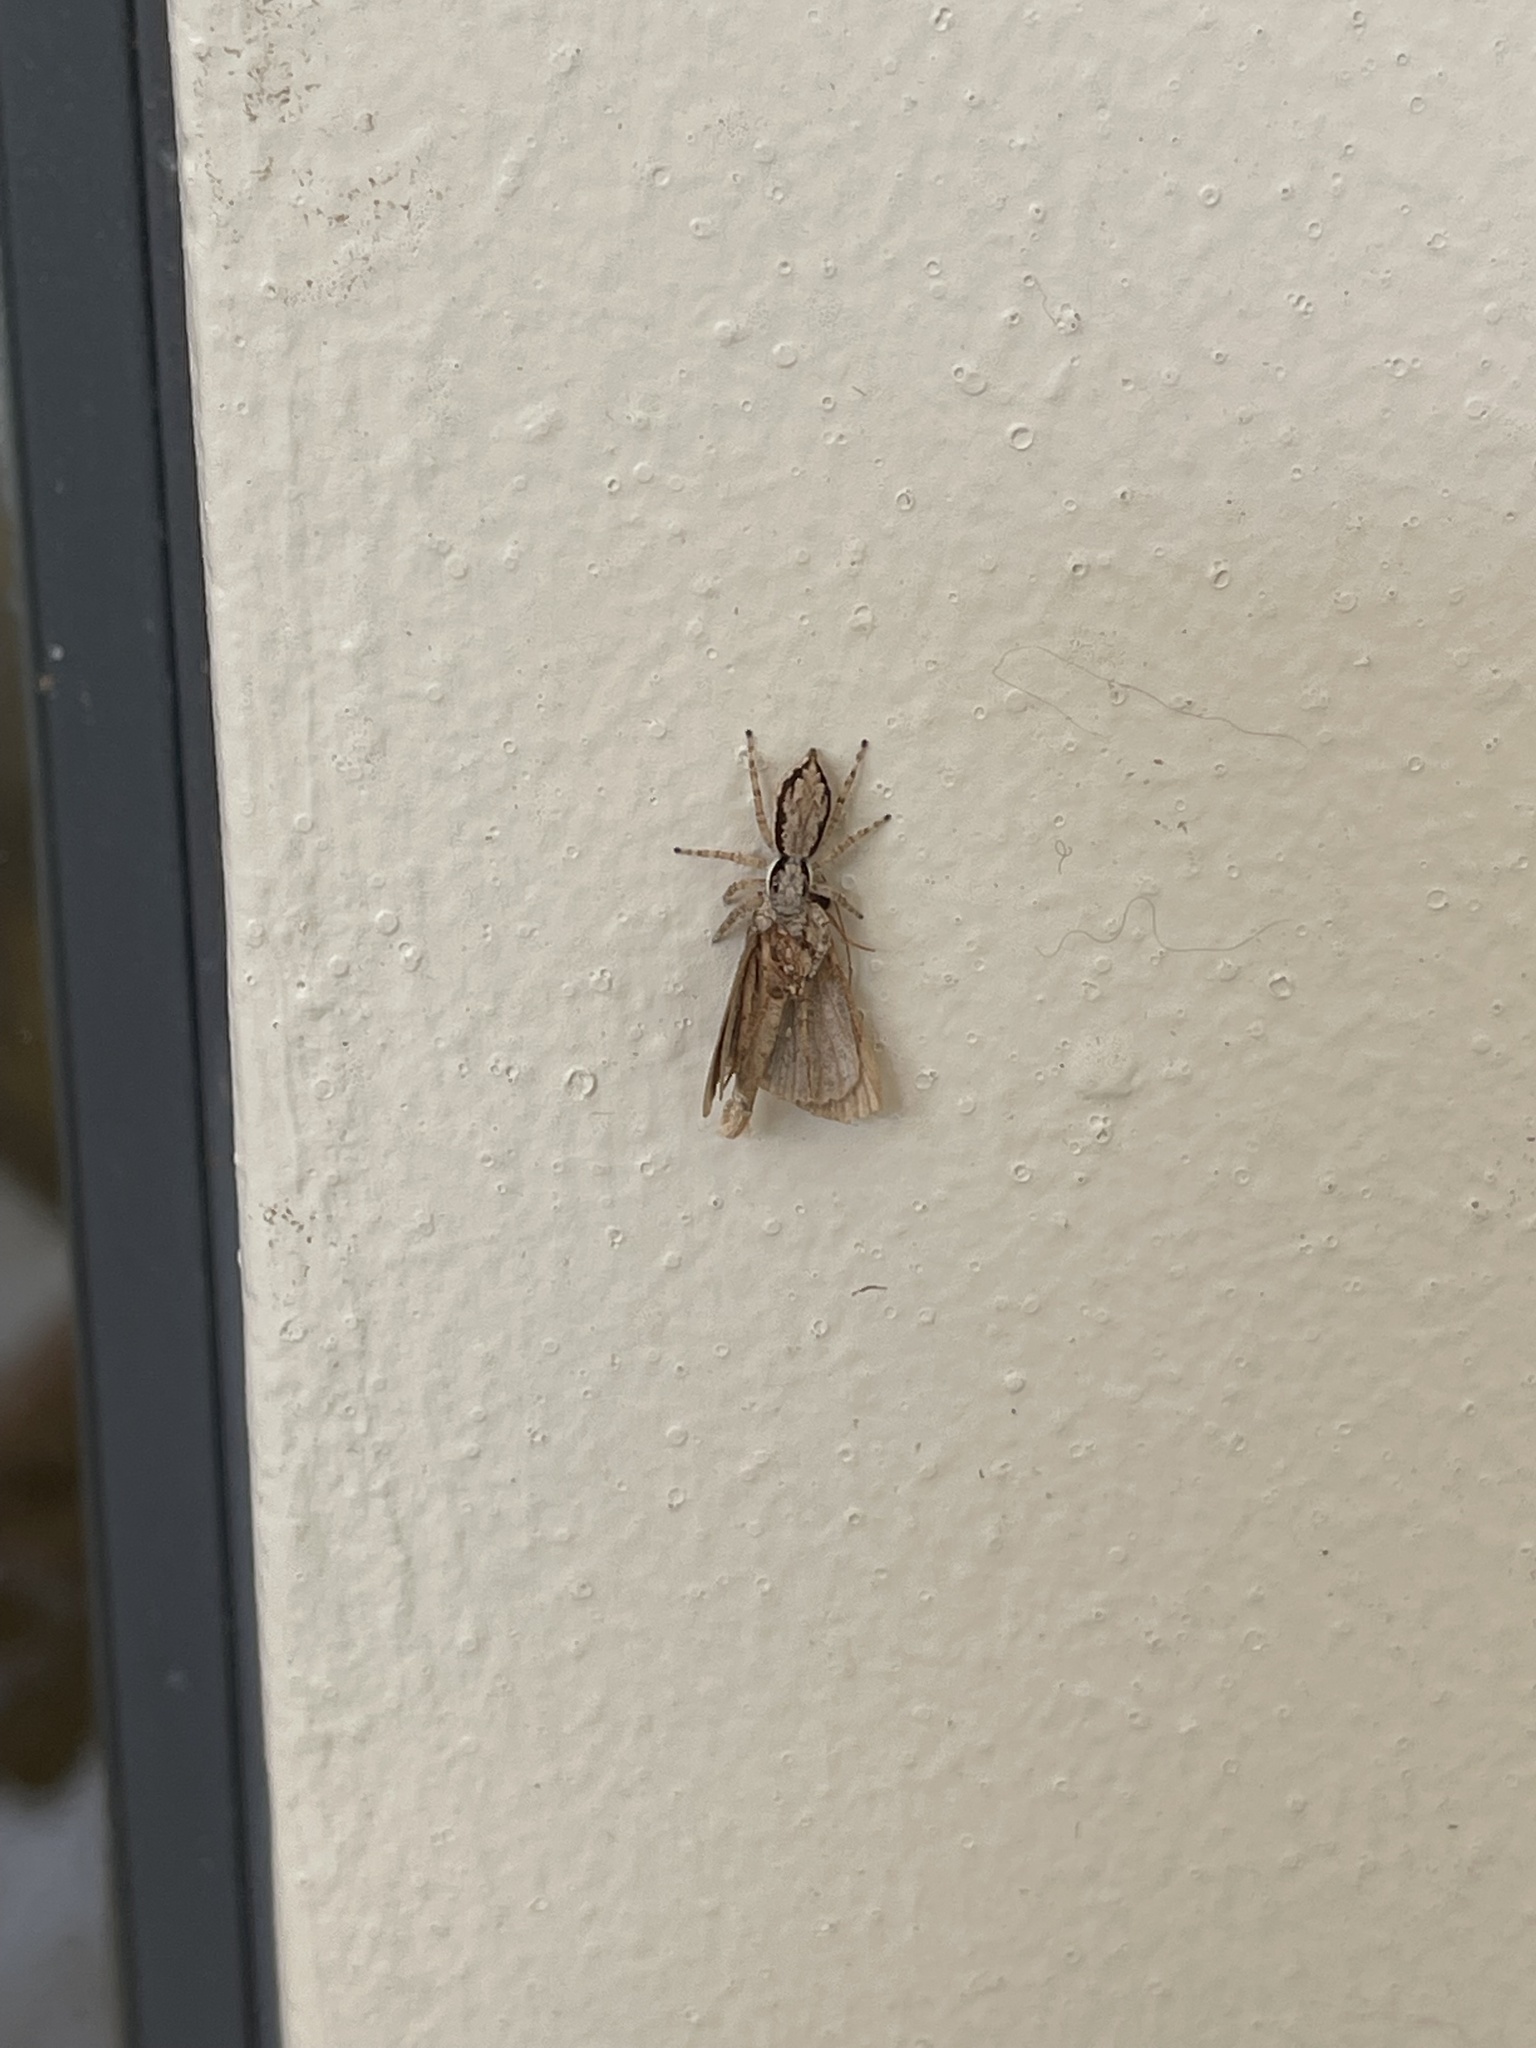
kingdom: Animalia
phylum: Arthropoda
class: Arachnida
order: Araneae
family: Salticidae
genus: Menemerus
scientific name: Menemerus bivittatus
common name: Gray wall jumper
